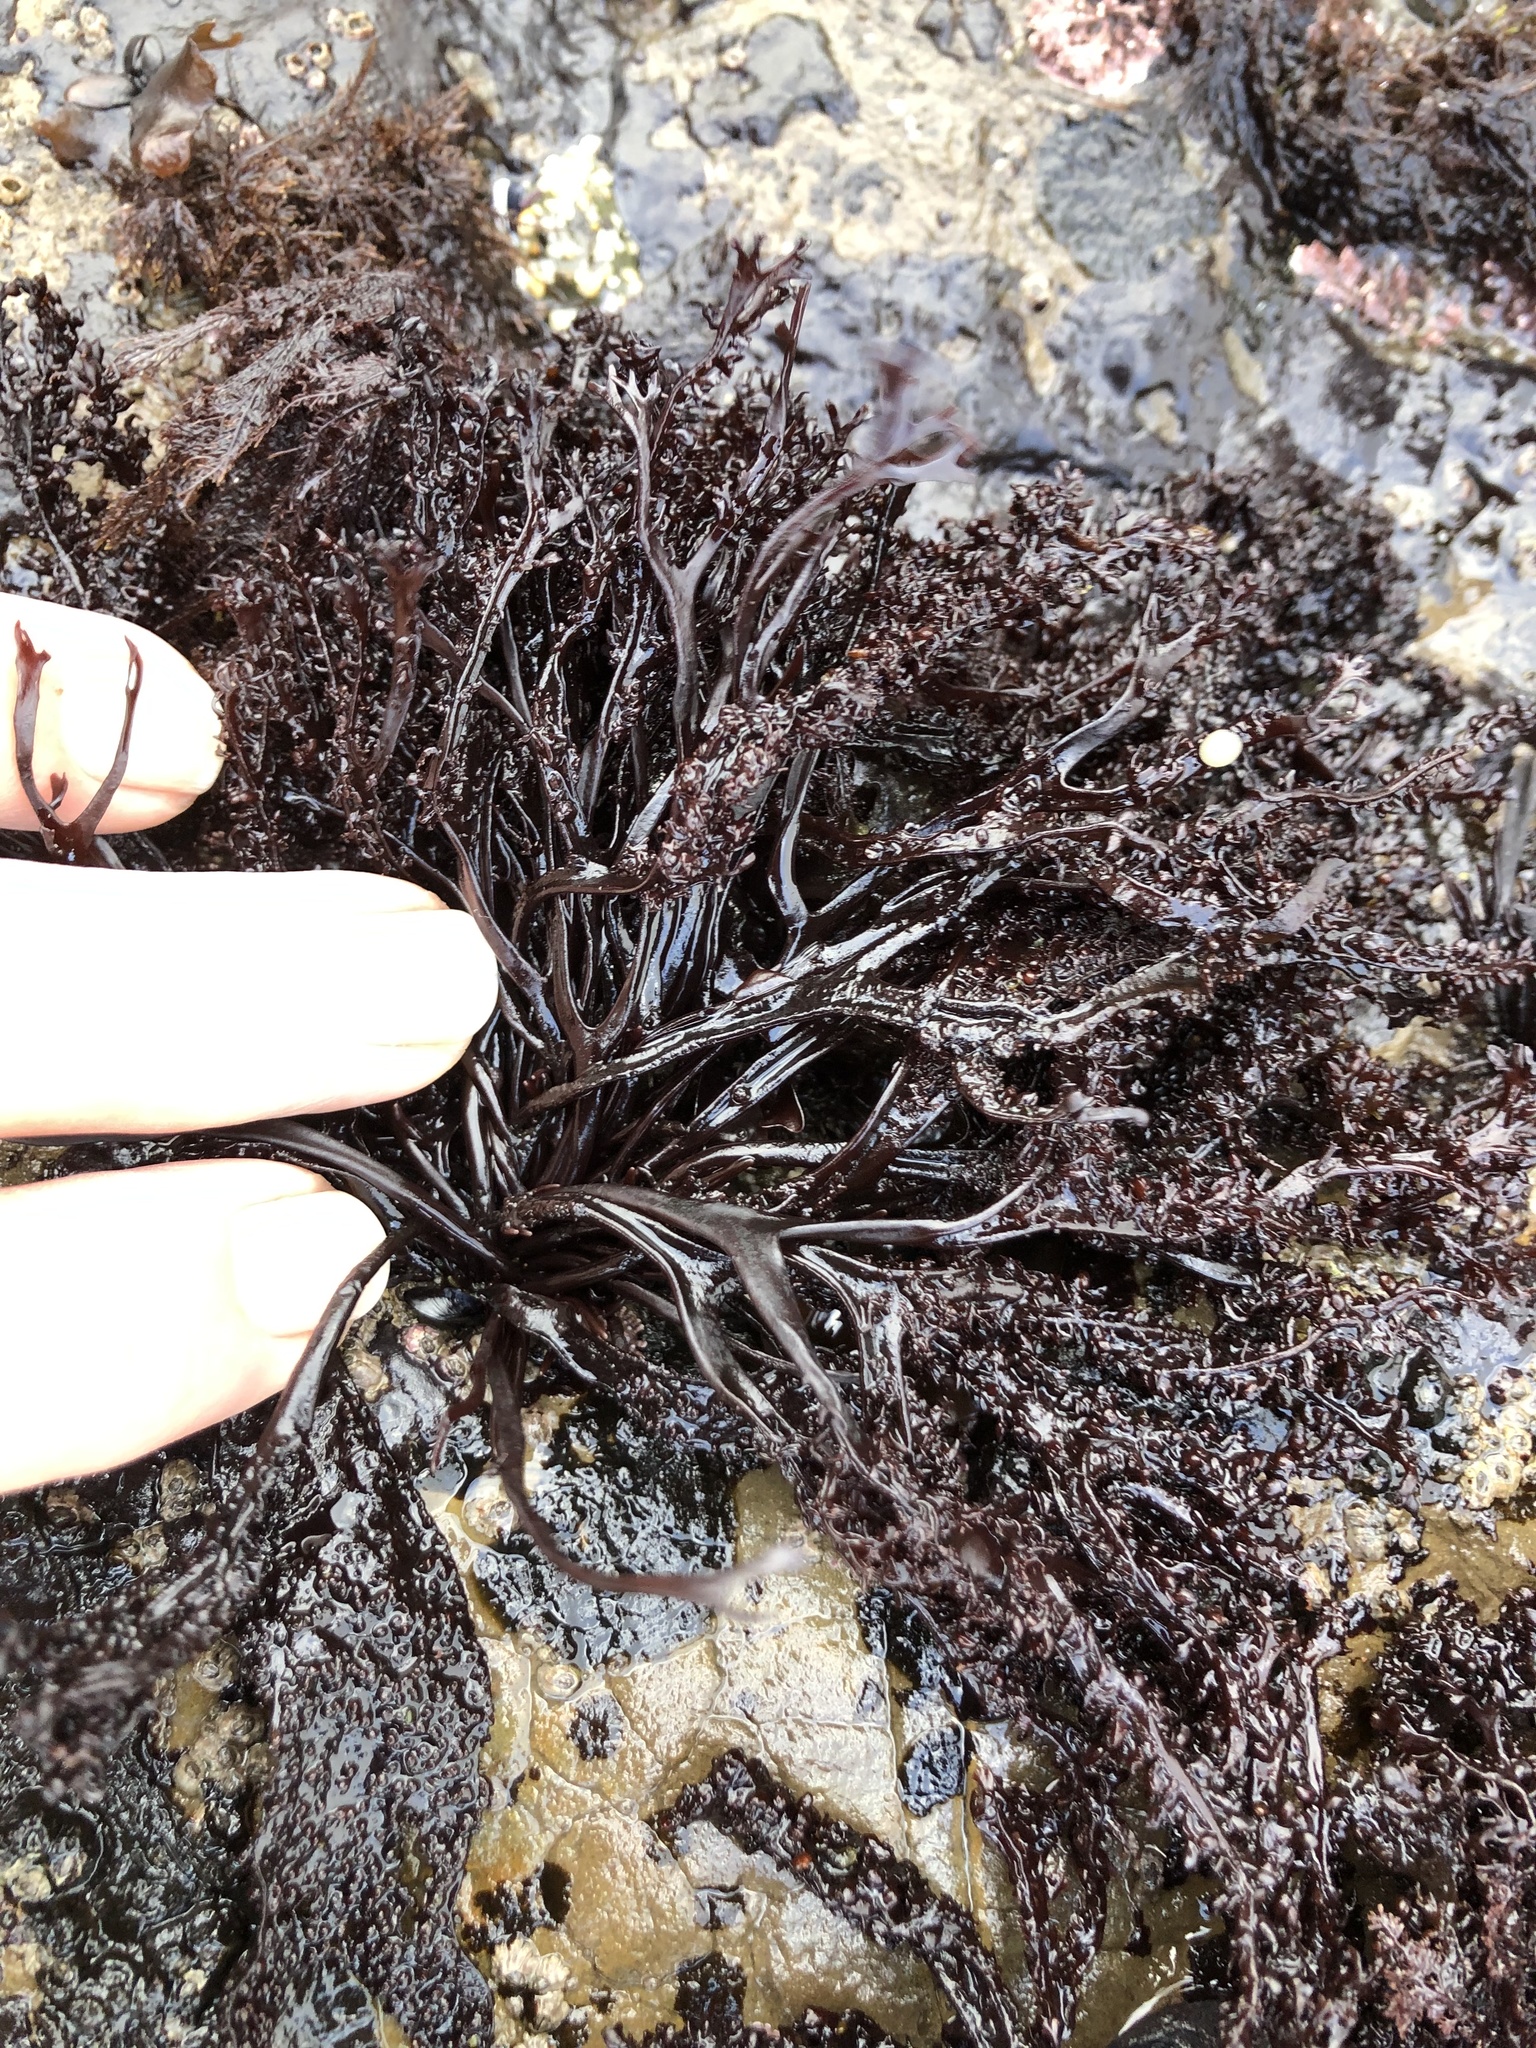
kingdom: Plantae
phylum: Rhodophyta
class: Florideophyceae
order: Gigartinales
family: Phyllophoraceae
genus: Mastocarpus
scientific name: Mastocarpus jardinii
